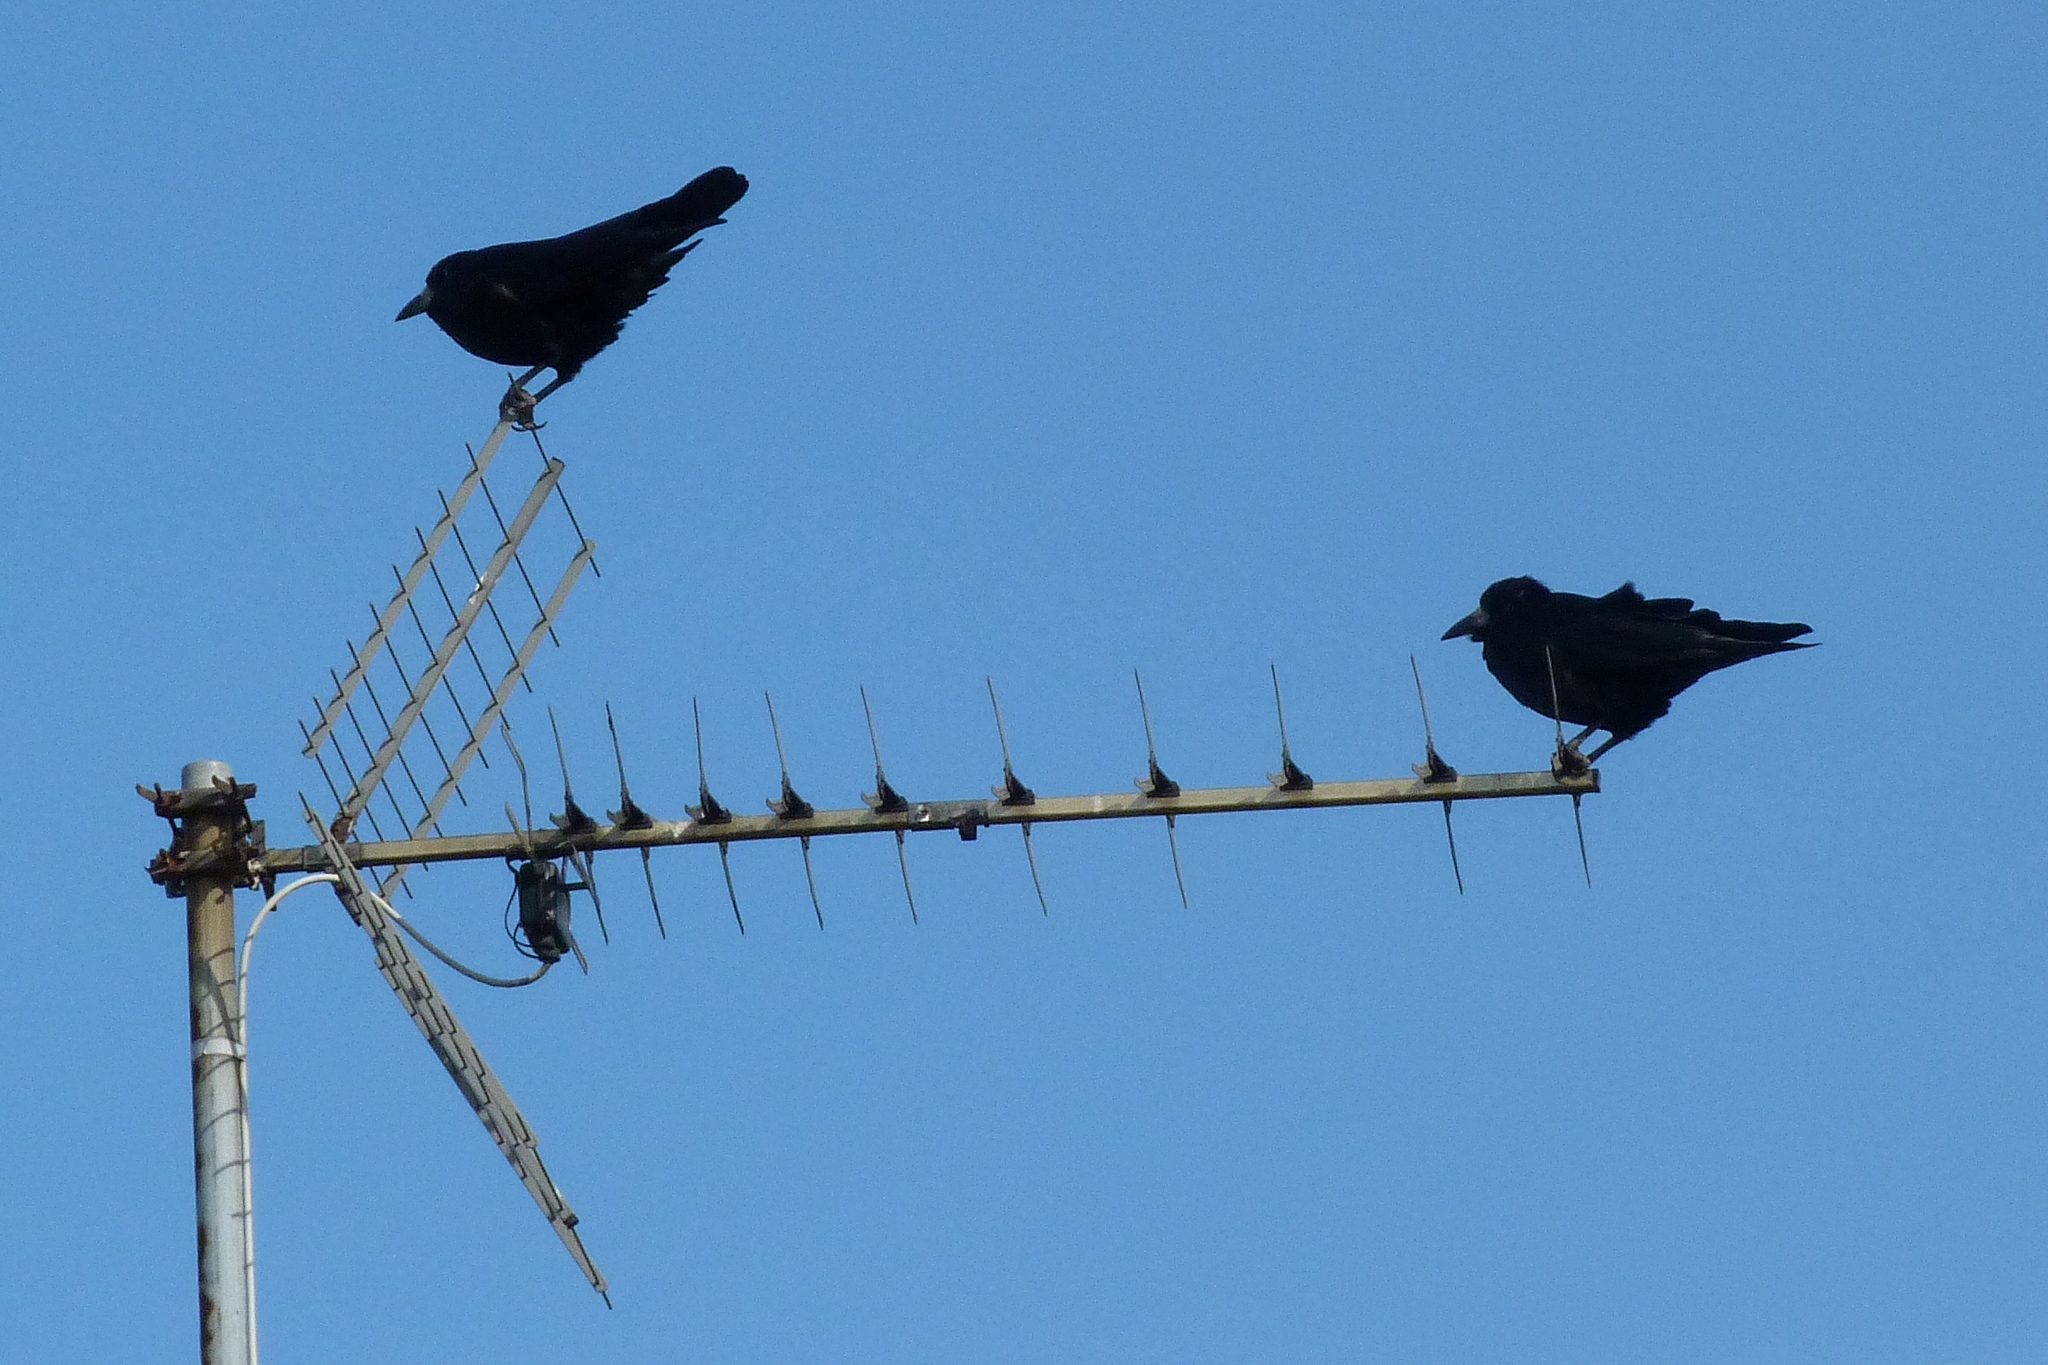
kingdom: Animalia
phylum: Chordata
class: Aves
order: Passeriformes
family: Corvidae
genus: Corvus
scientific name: Corvus frugilegus
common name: Rook
